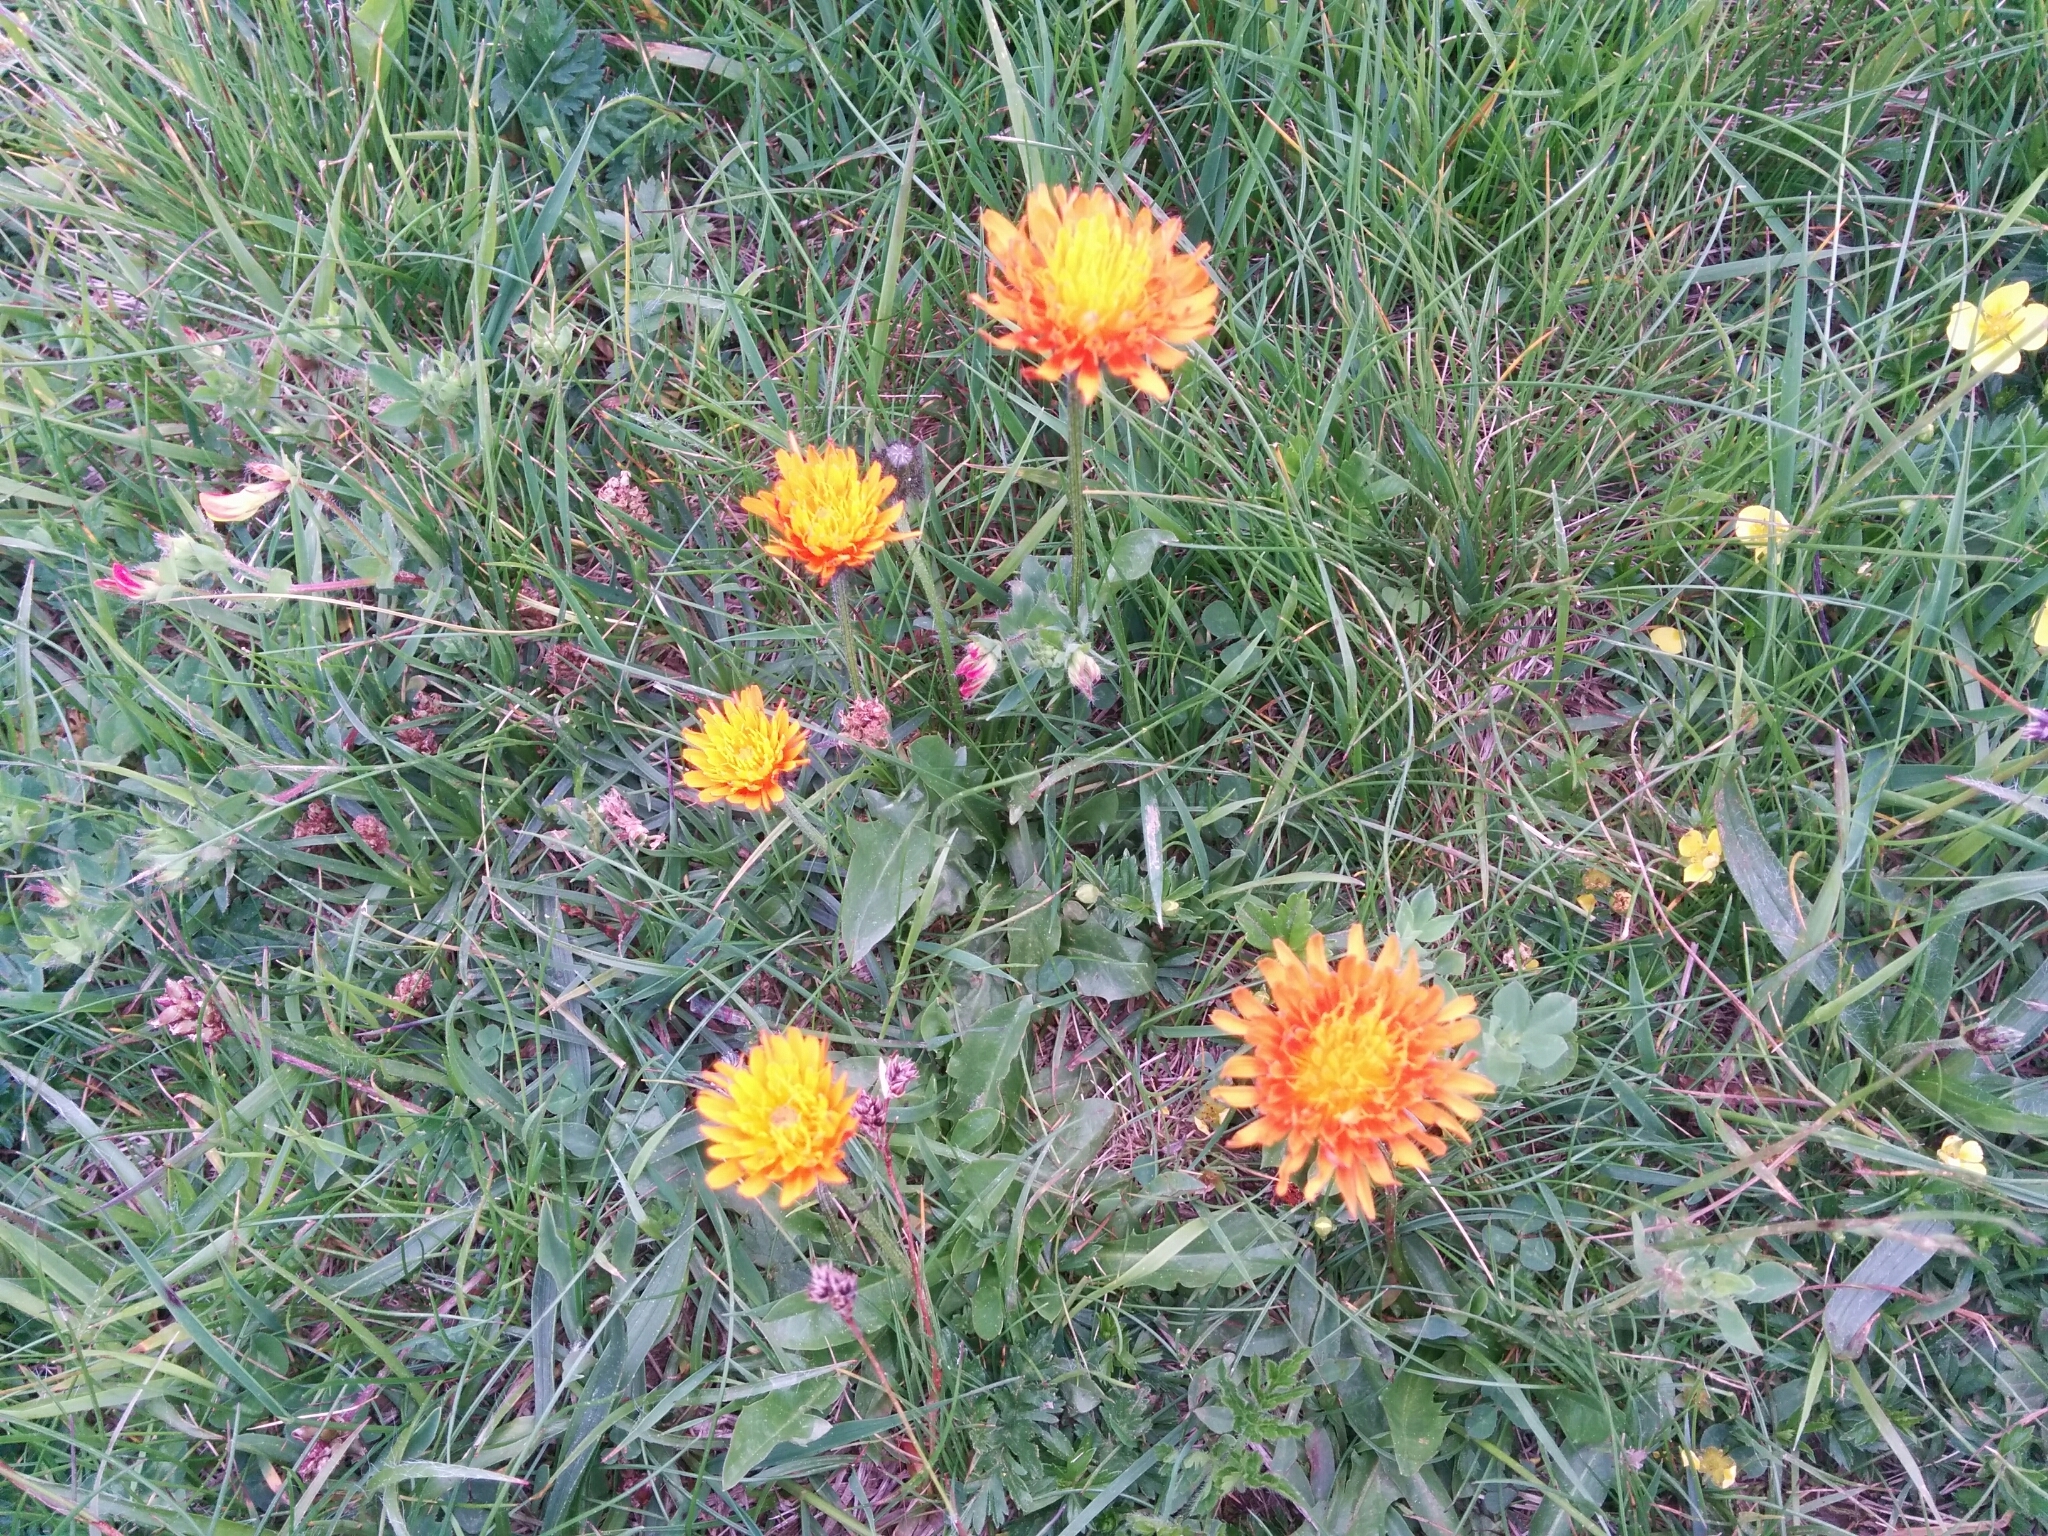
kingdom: Plantae
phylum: Tracheophyta
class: Magnoliopsida
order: Asterales
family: Asteraceae
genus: Crepis
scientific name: Crepis aurea
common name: Golden hawk's-beard
